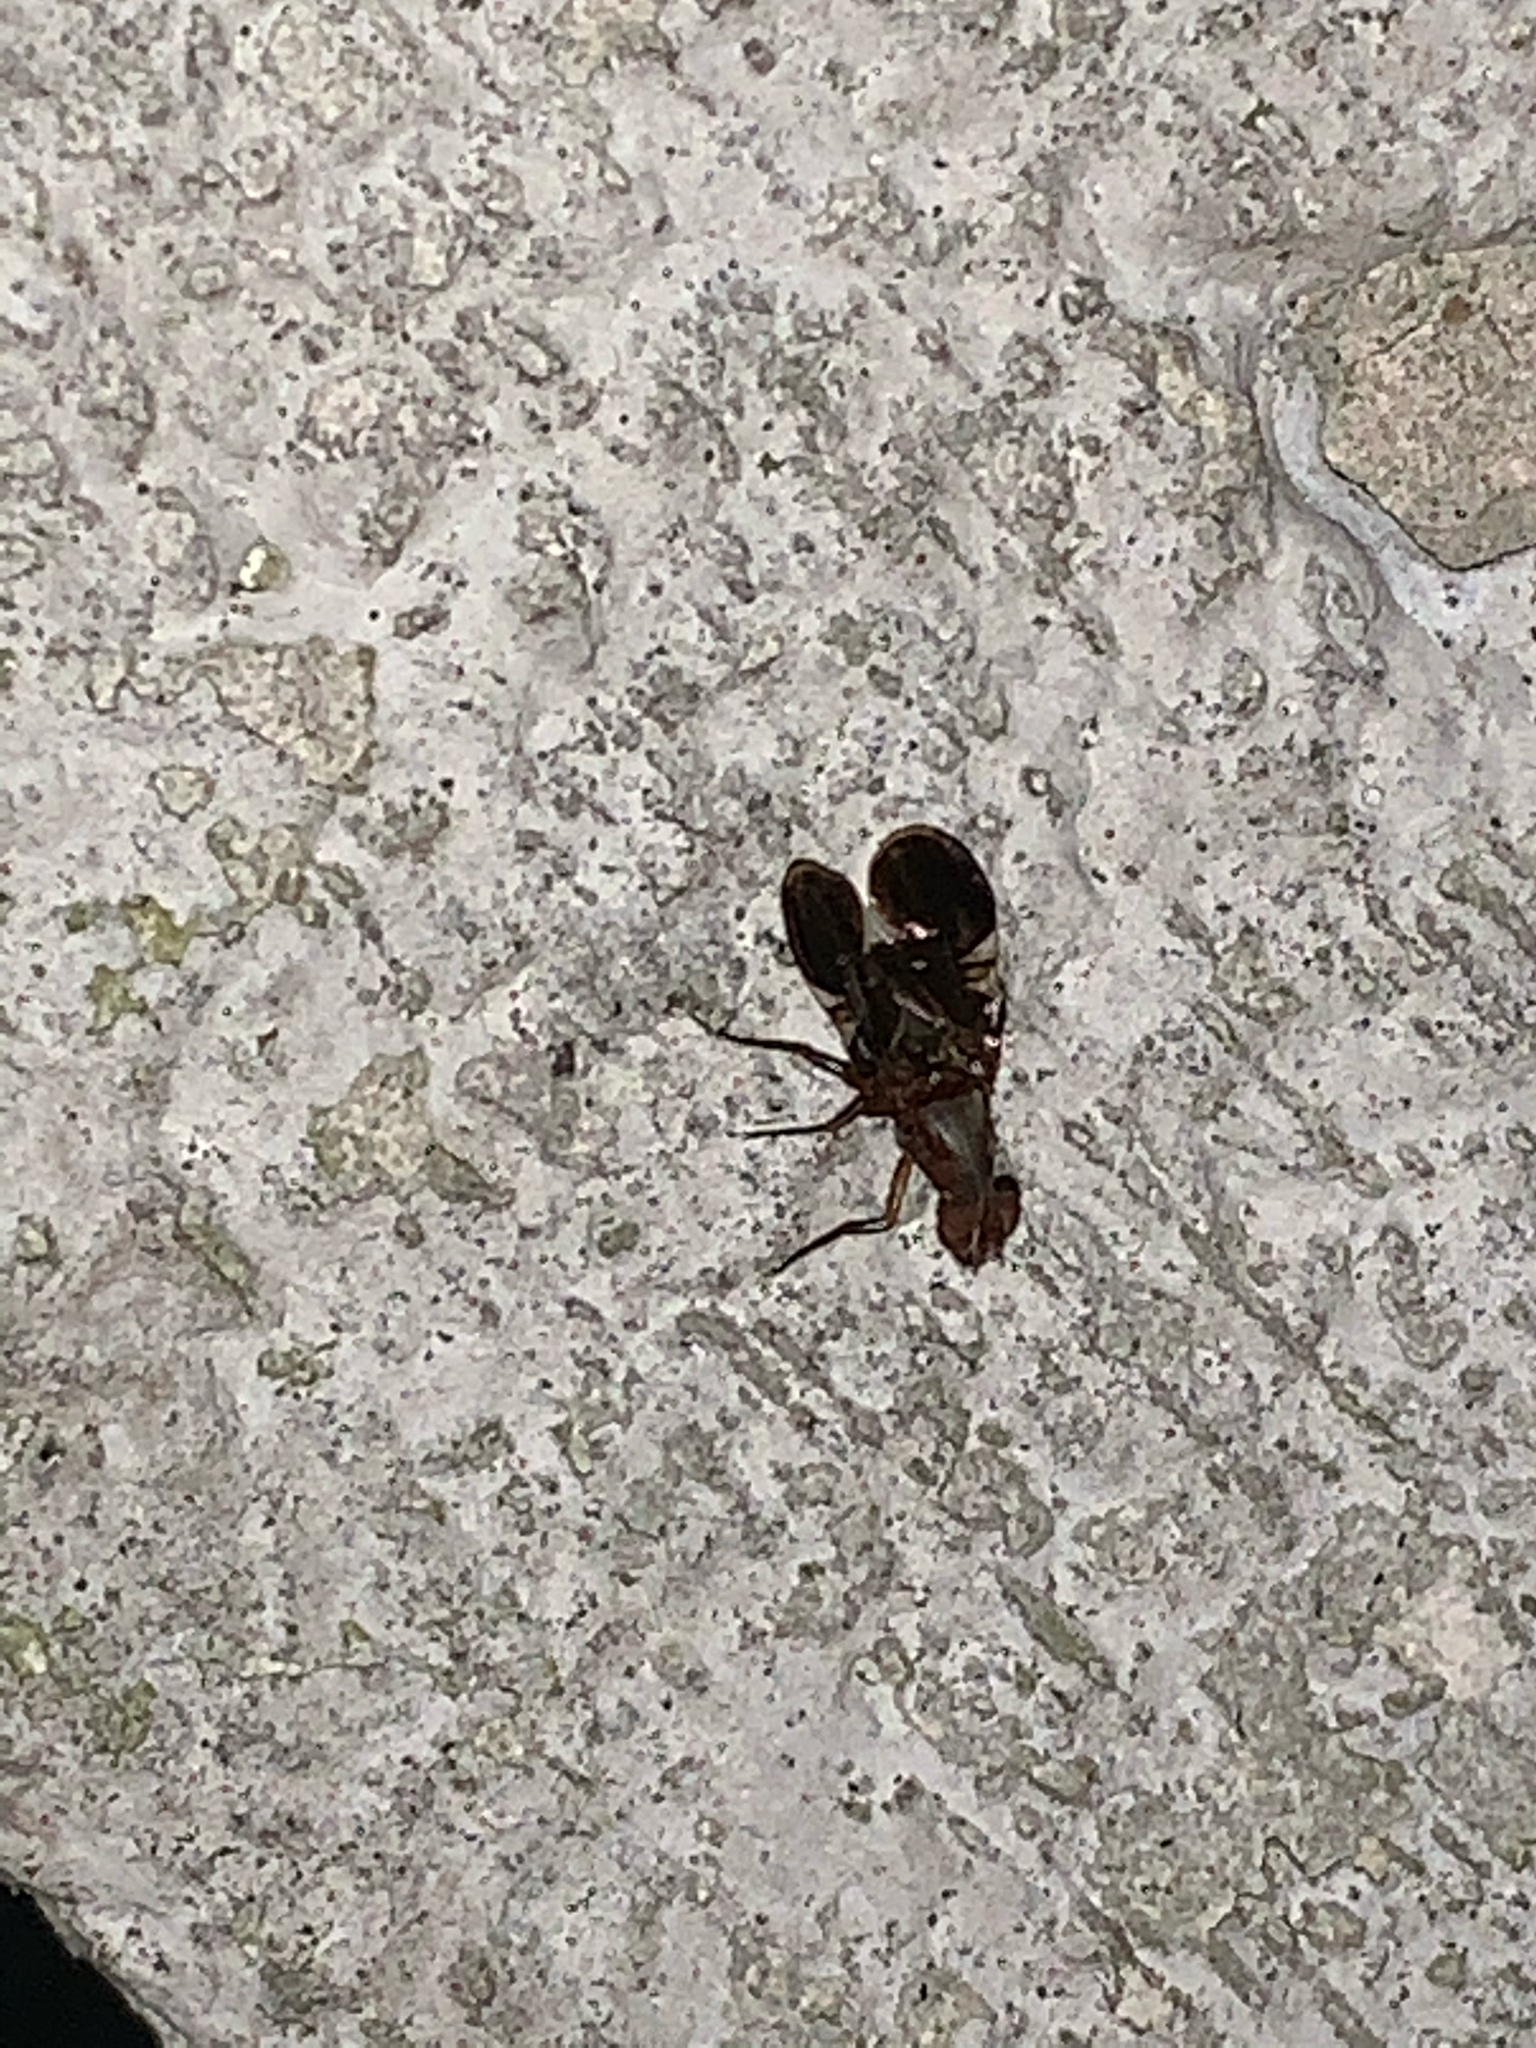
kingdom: Animalia
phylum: Arthropoda
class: Insecta
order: Diptera
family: Ulidiidae
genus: Delphinia
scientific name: Delphinia picta
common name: Common picture-winged fly
